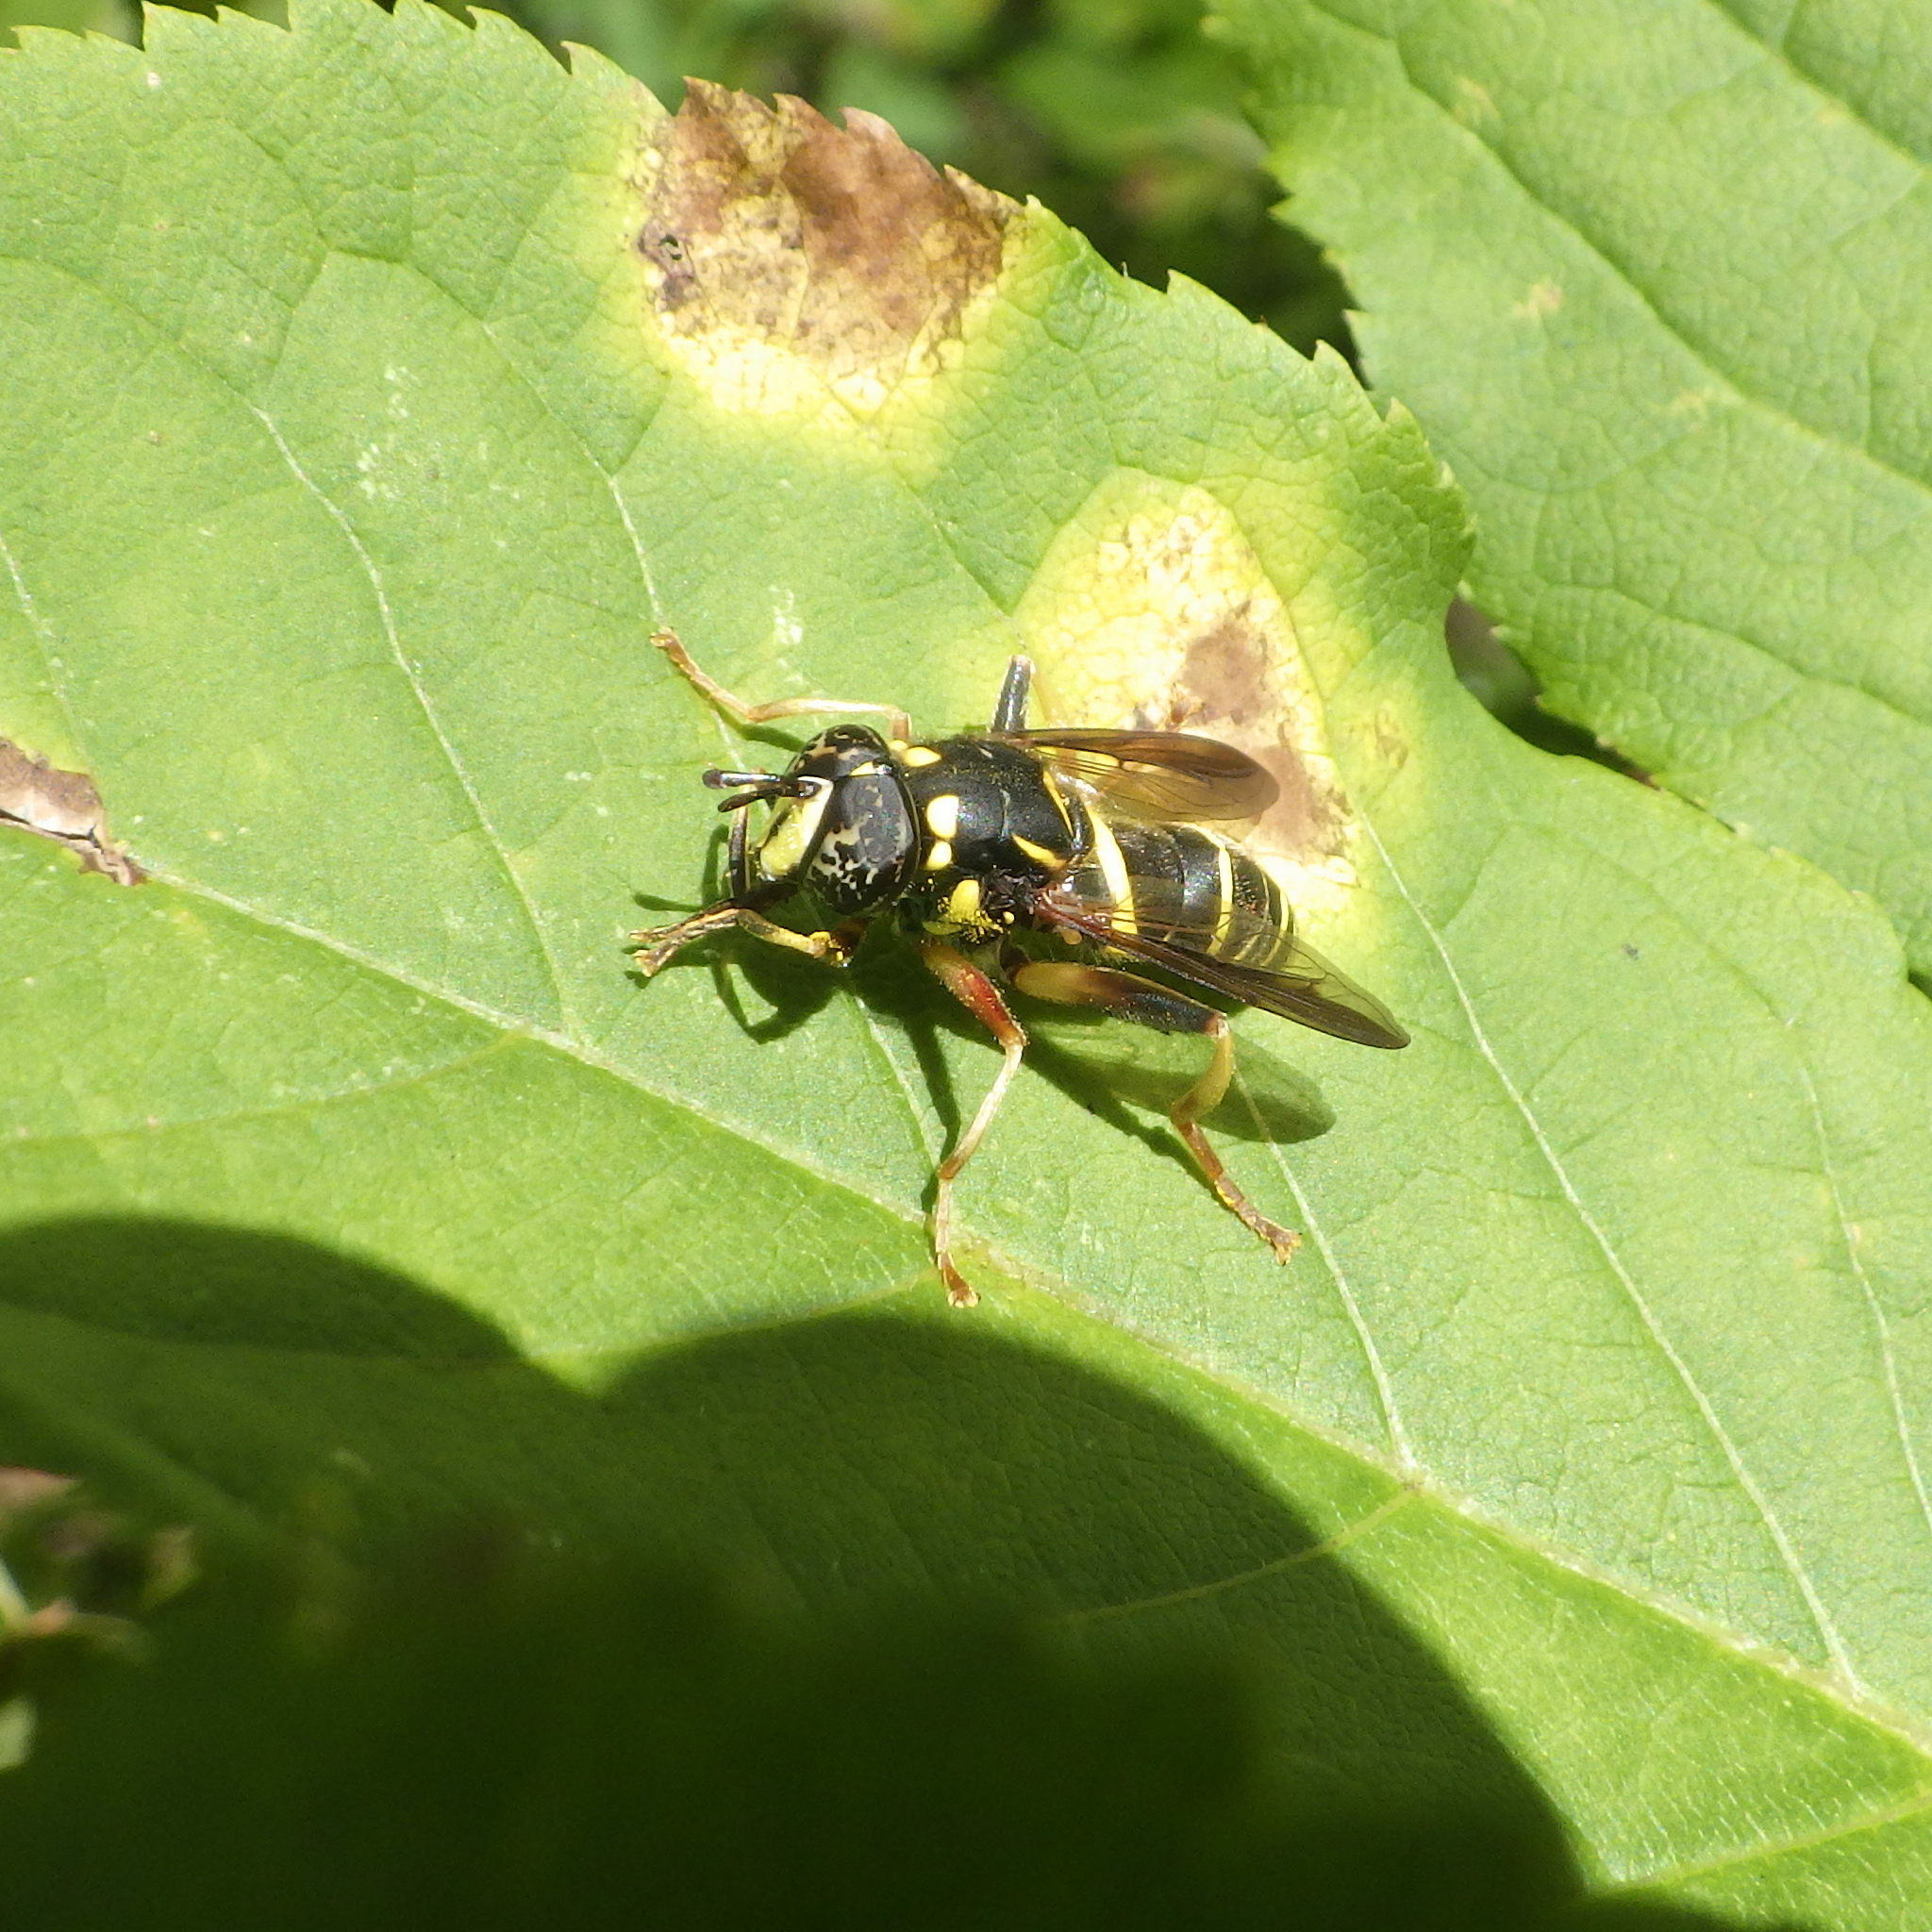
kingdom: Animalia
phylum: Arthropoda
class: Insecta
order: Diptera
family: Syrphidae
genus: Spilomyia
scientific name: Spilomyia sayi
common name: Four-lined hornet fly
